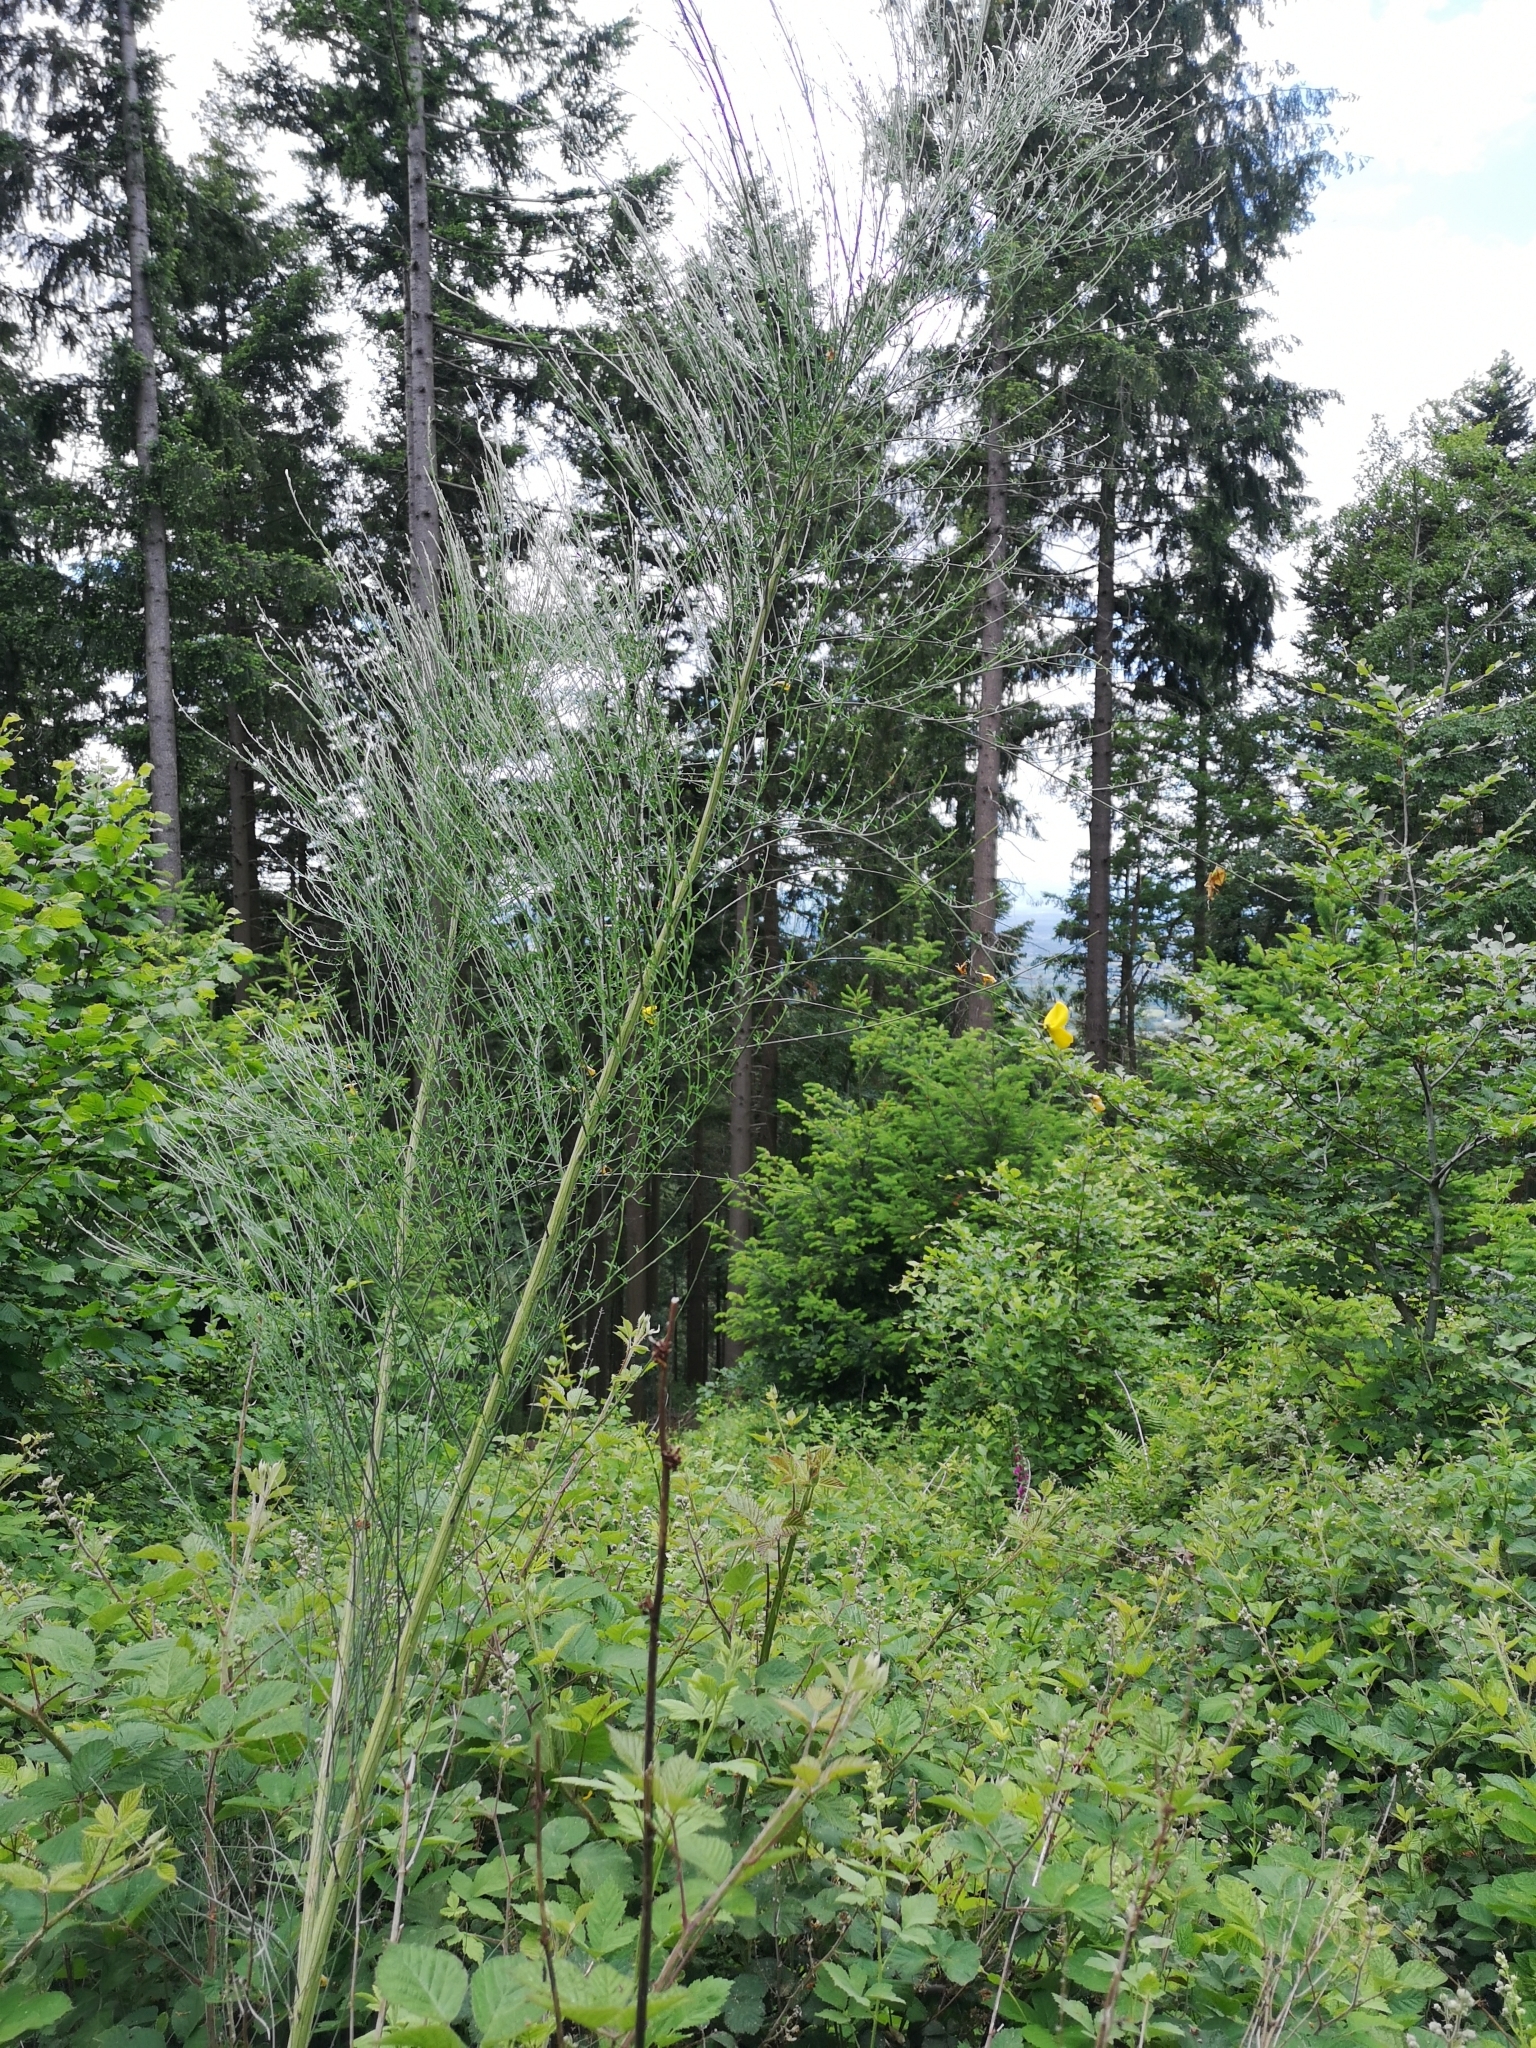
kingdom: Plantae
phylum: Tracheophyta
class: Liliopsida
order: Asparagales
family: Asparagaceae
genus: Asparagus
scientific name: Asparagus officinalis
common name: Garden asparagus
